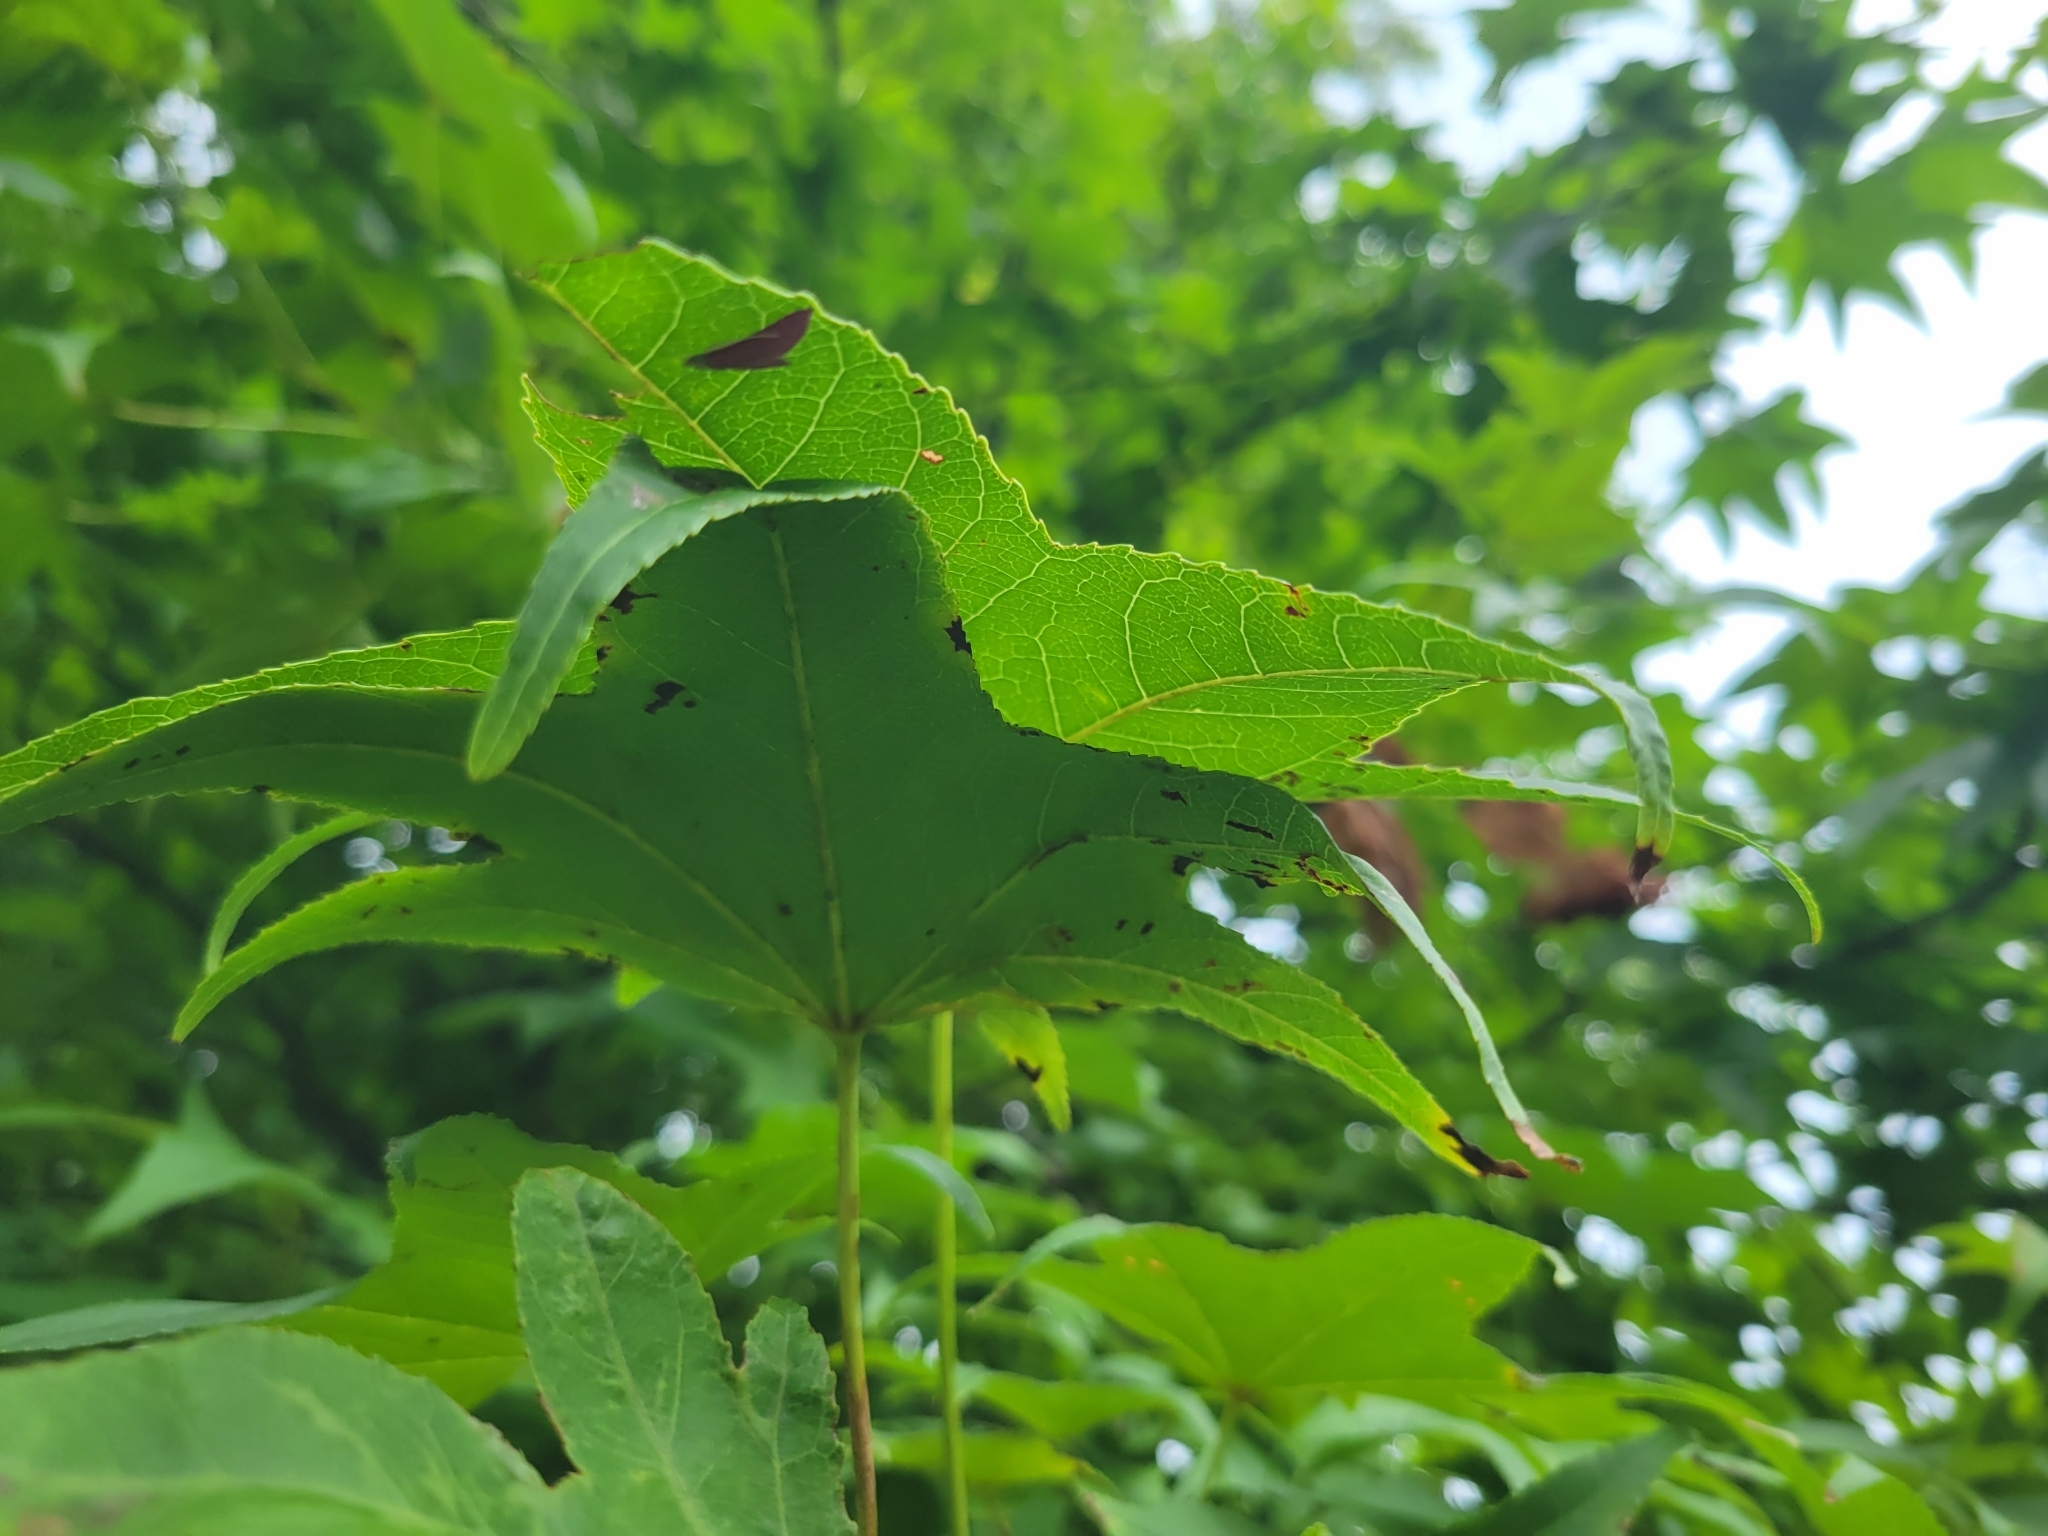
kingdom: Animalia
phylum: Arthropoda
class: Insecta
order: Lepidoptera
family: Crambidae
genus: Pyrausta
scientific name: Pyrausta inornatalis
